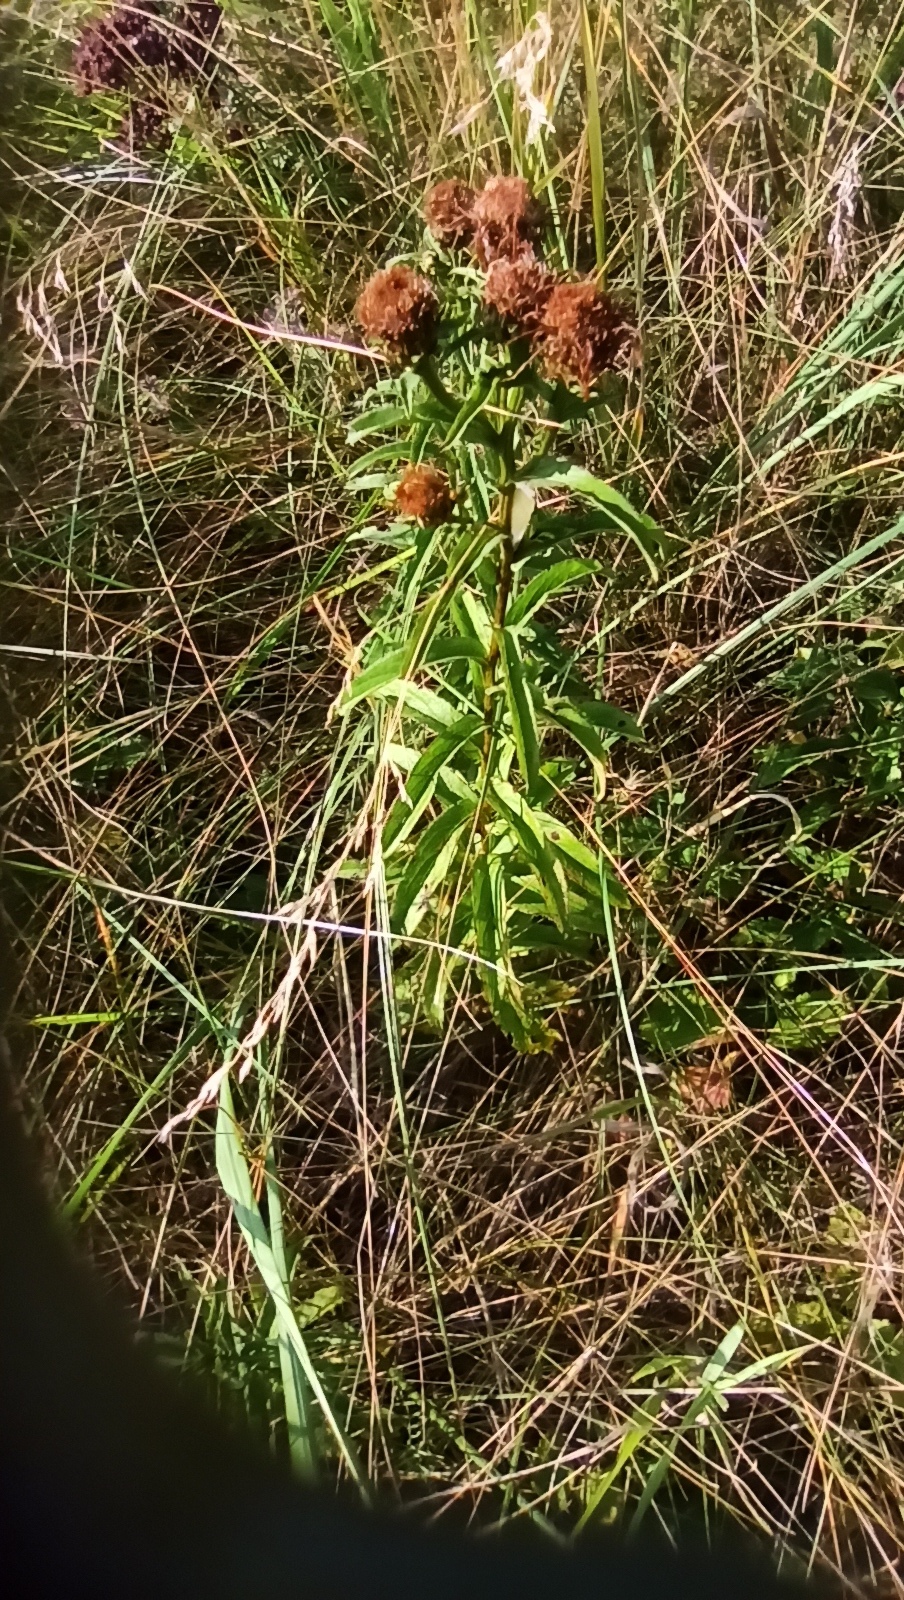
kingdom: Plantae
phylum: Tracheophyta
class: Magnoliopsida
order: Asterales
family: Asteraceae
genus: Pentanema
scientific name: Pentanema salicinum
